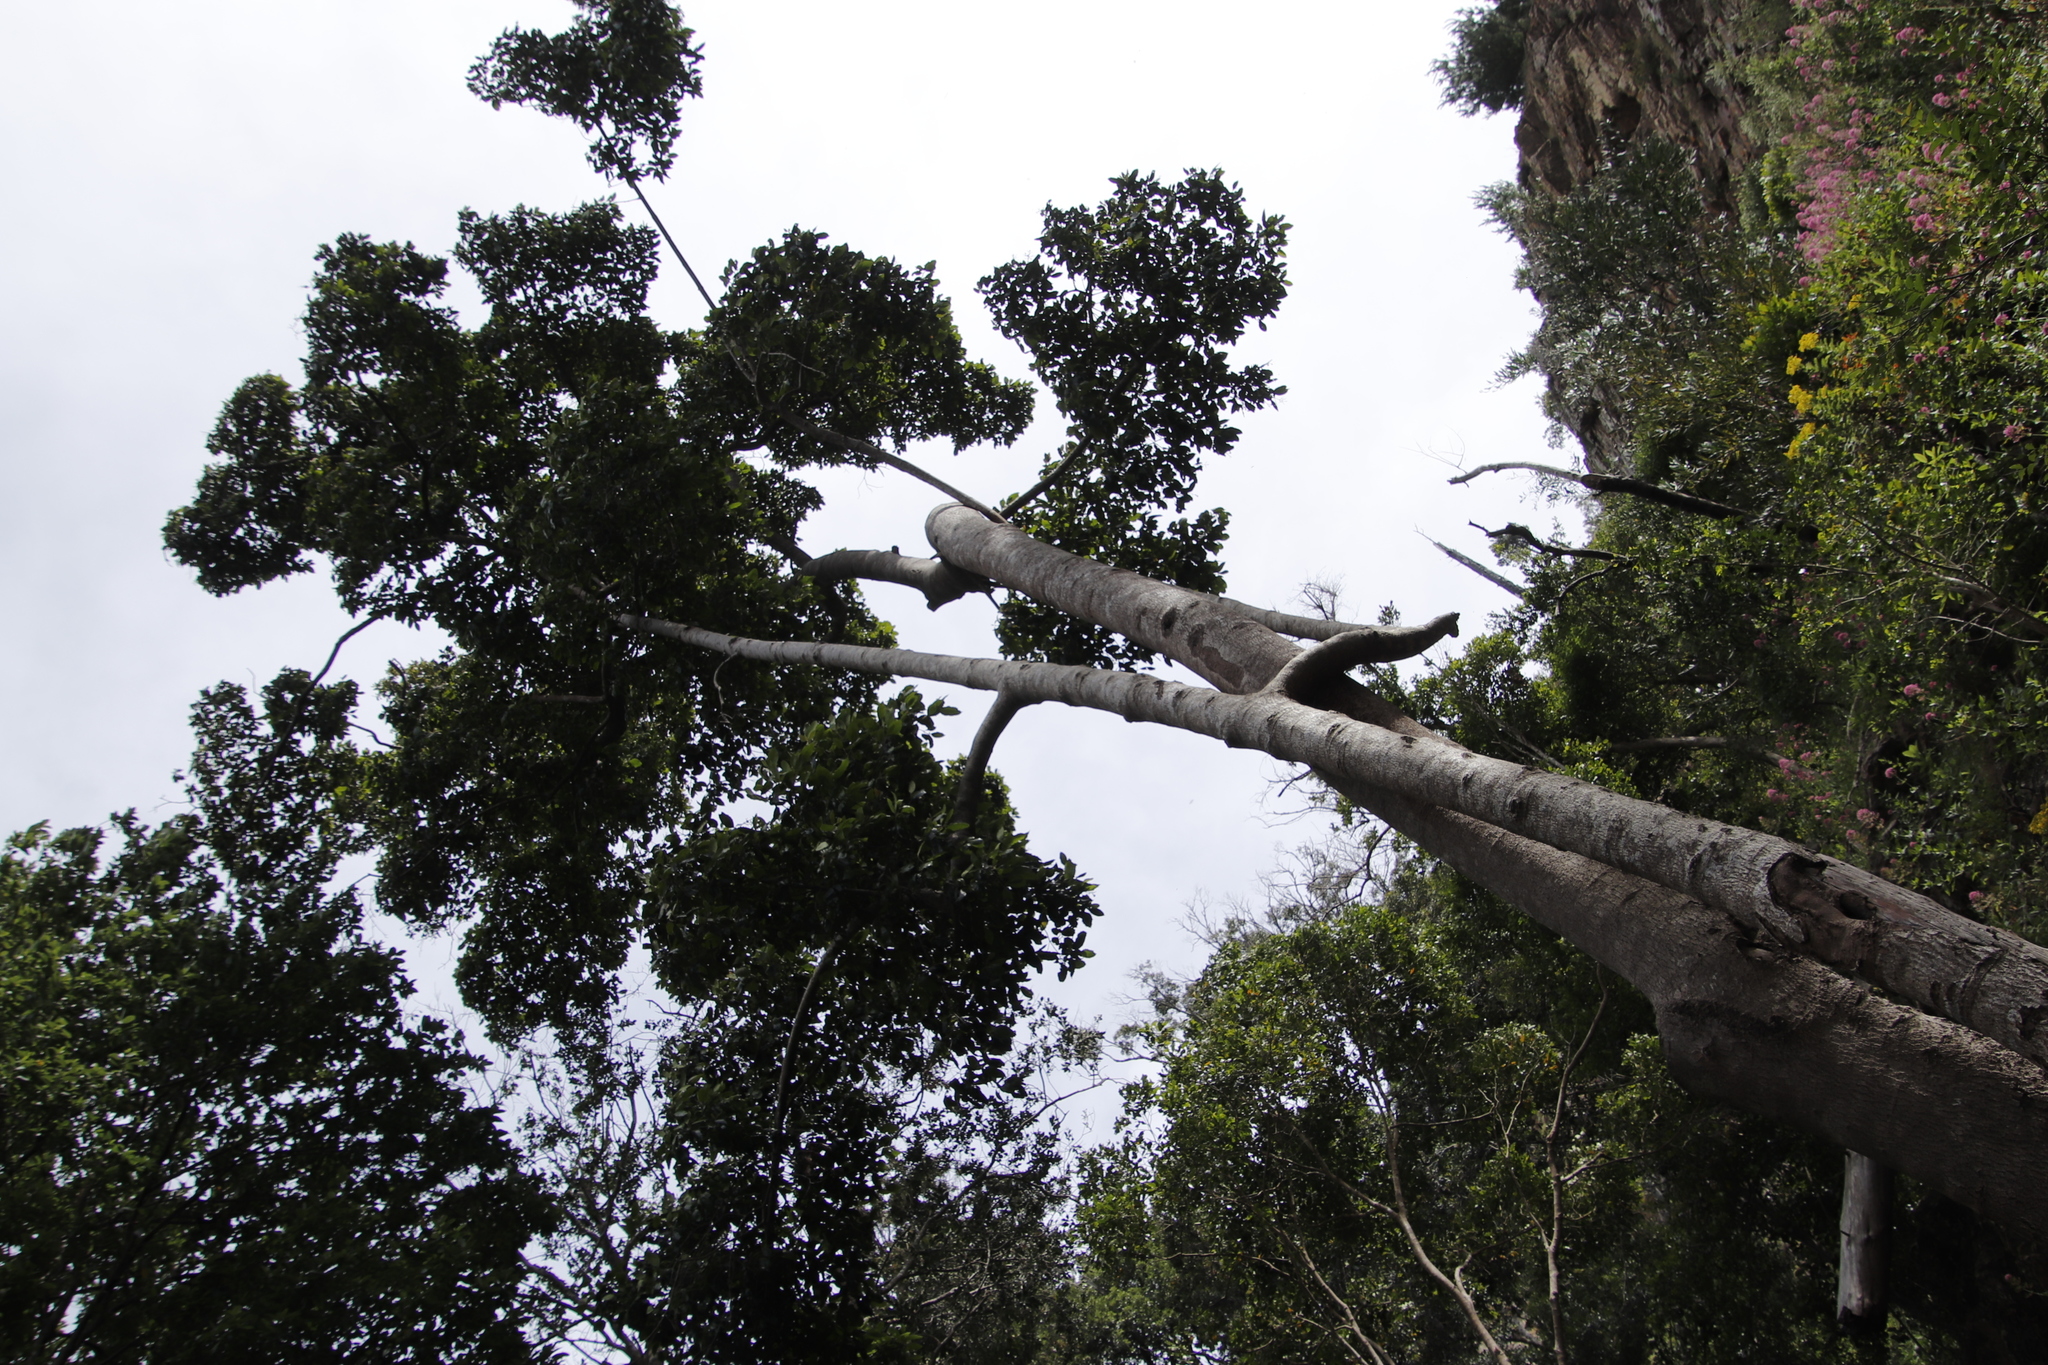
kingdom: Plantae
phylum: Tracheophyta
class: Magnoliopsida
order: Cornales
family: Curtisiaceae
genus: Curtisia
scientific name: Curtisia dentata
